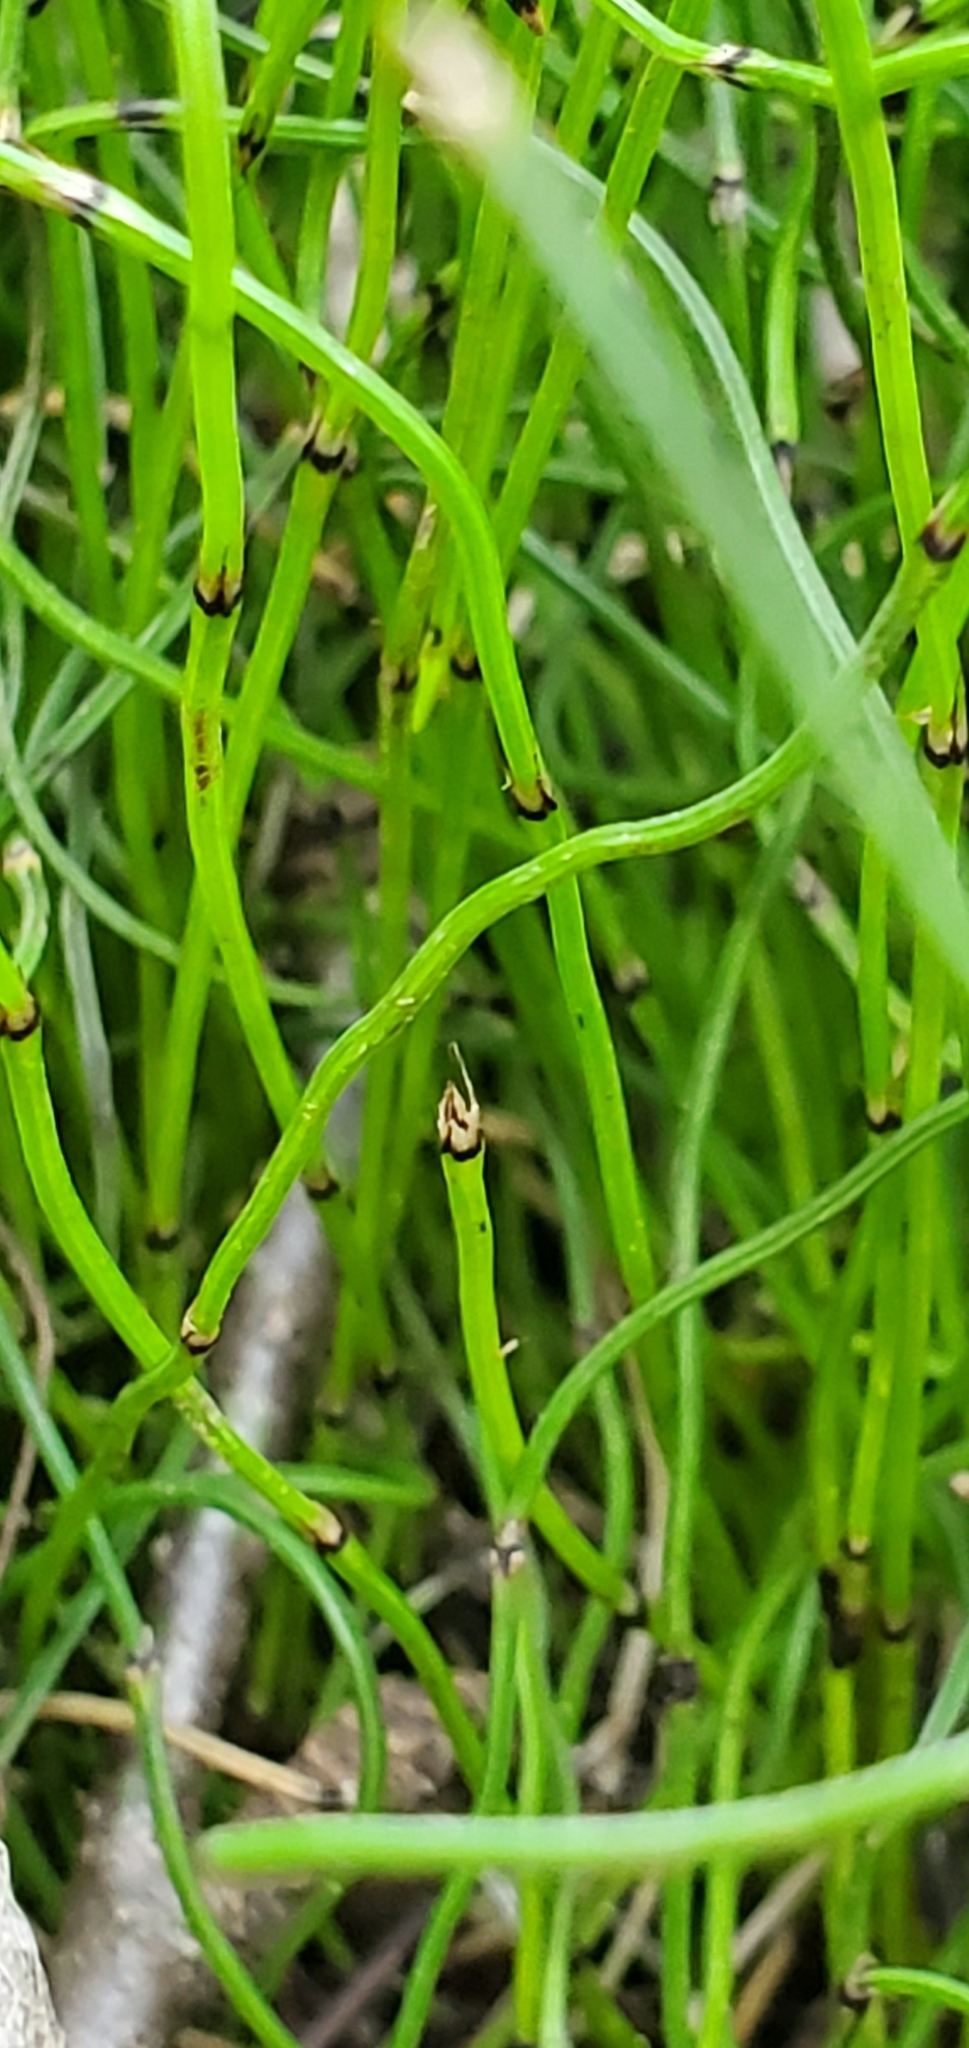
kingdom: Plantae
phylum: Tracheophyta
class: Polypodiopsida
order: Equisetales
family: Equisetaceae
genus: Equisetum
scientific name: Equisetum scirpoides
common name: Delicate horsetail
